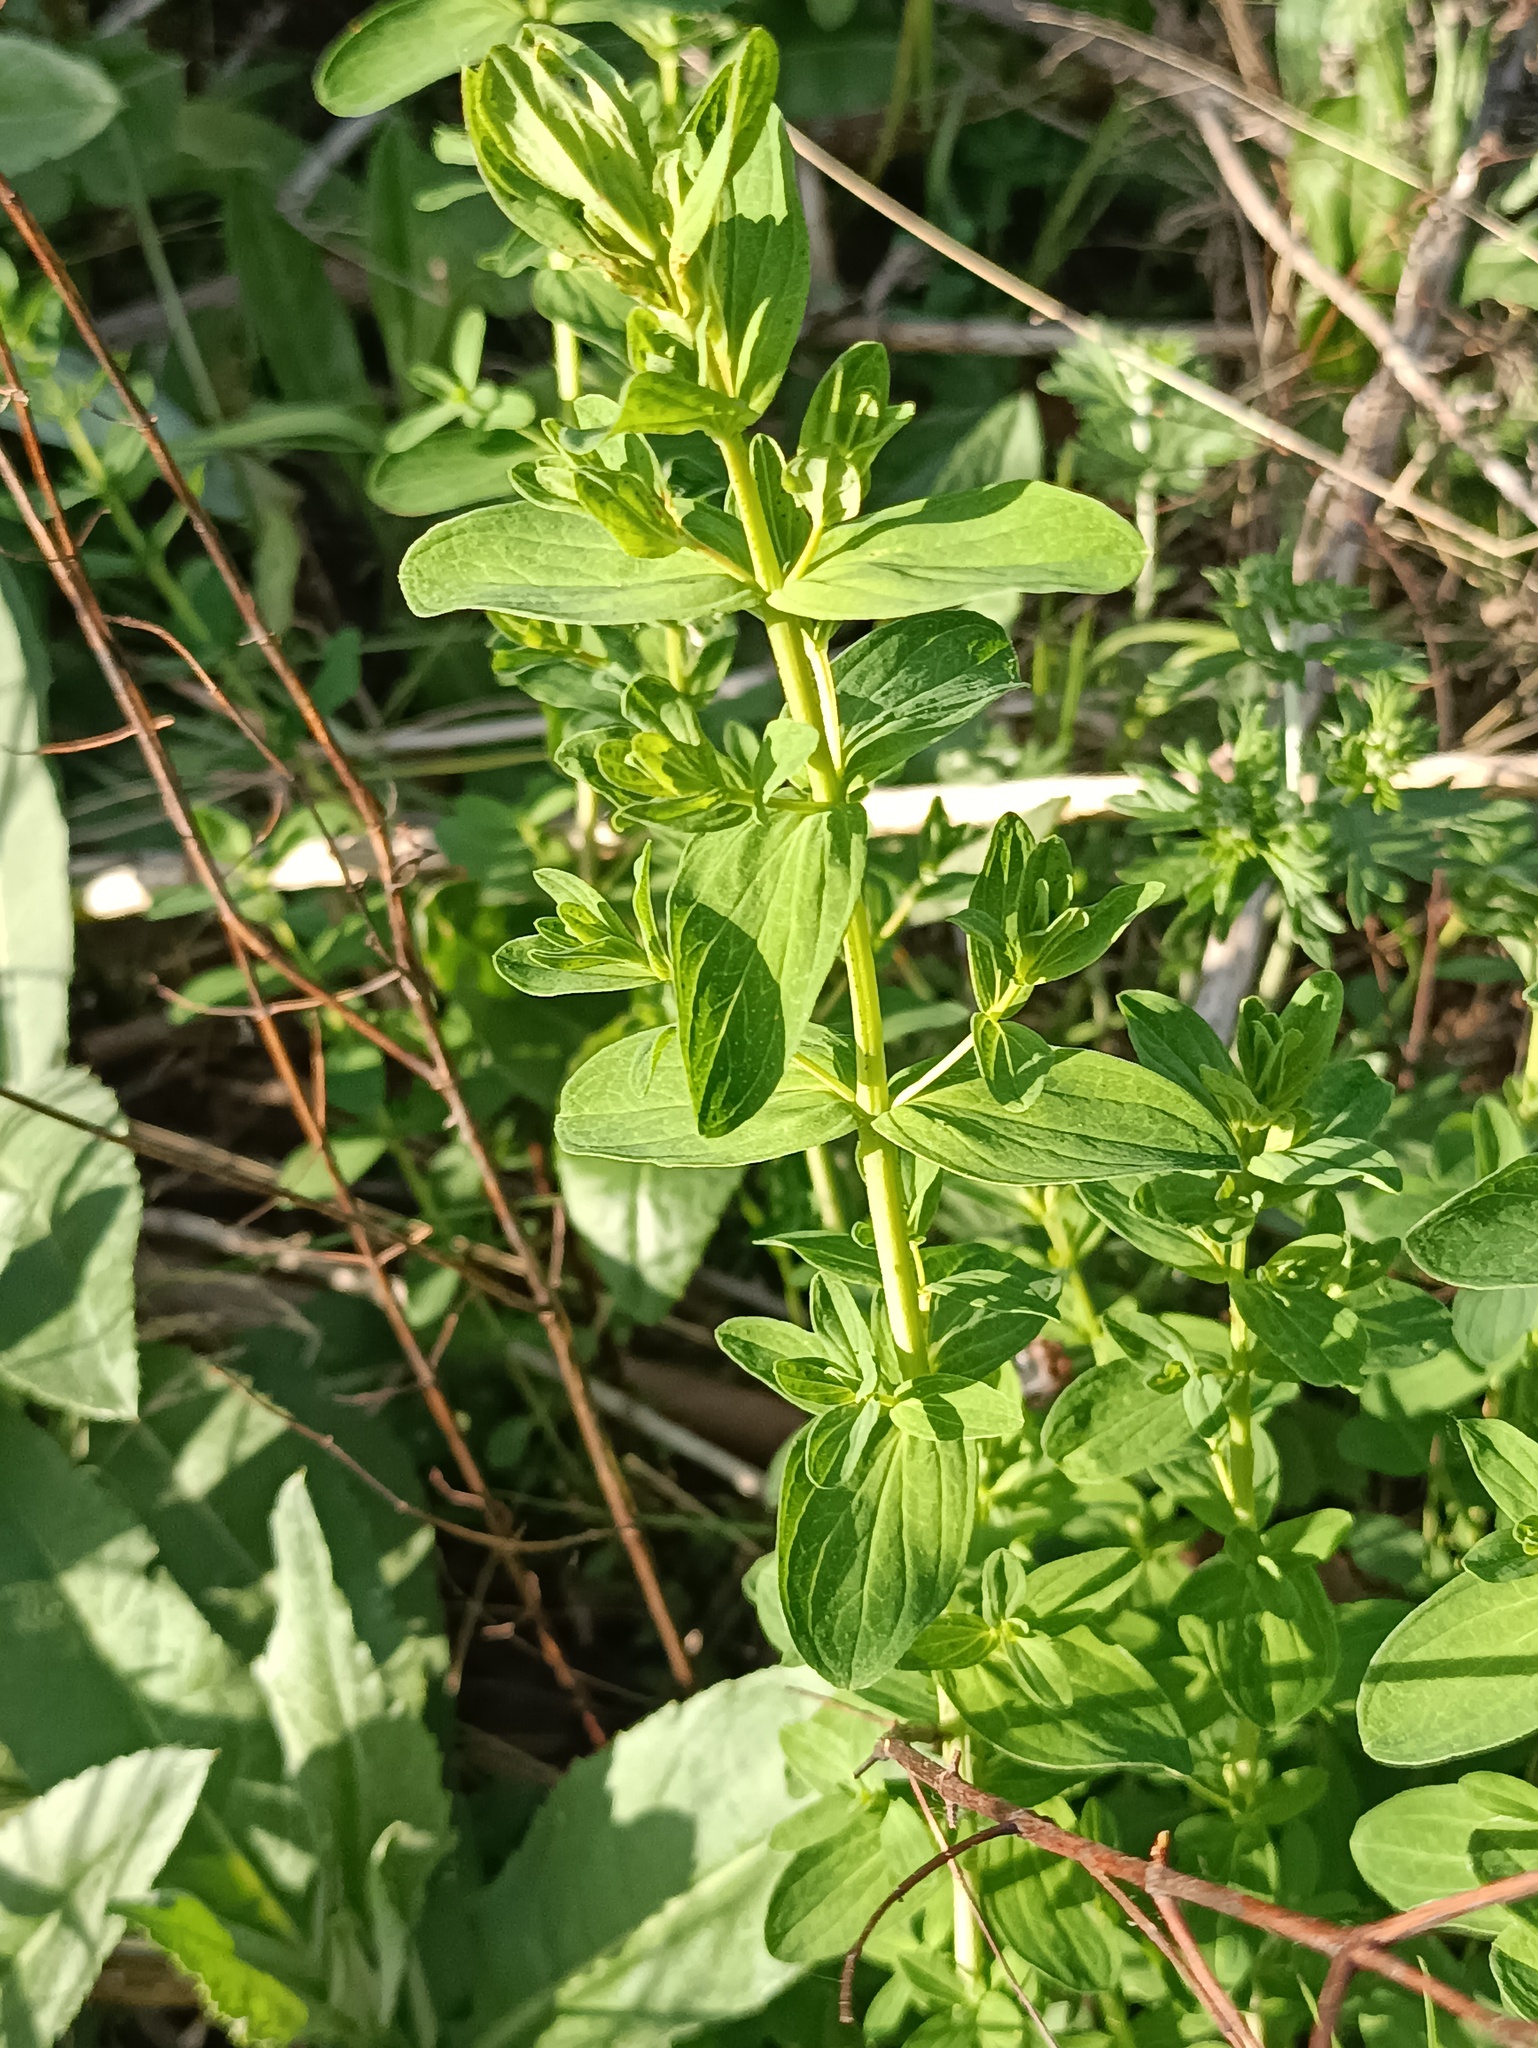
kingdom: Plantae
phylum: Tracheophyta
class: Magnoliopsida
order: Malpighiales
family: Hypericaceae
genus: Hypericum
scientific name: Hypericum maculatum
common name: Imperforate st. john's-wort
